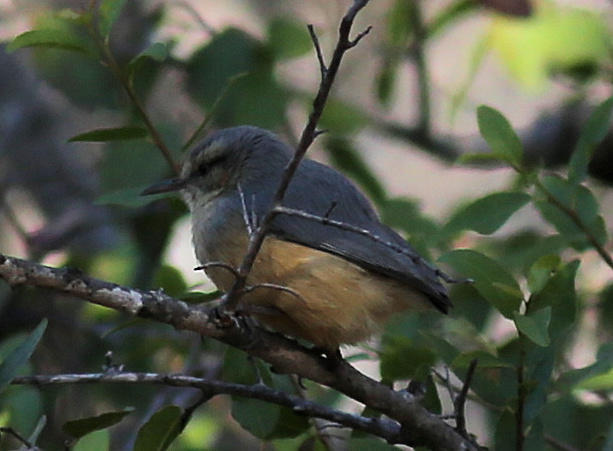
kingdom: Animalia
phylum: Chordata
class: Aves
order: Passeriformes
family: Macrosphenidae
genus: Sylvietta
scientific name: Sylvietta rufescens
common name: Long-billed crombec
